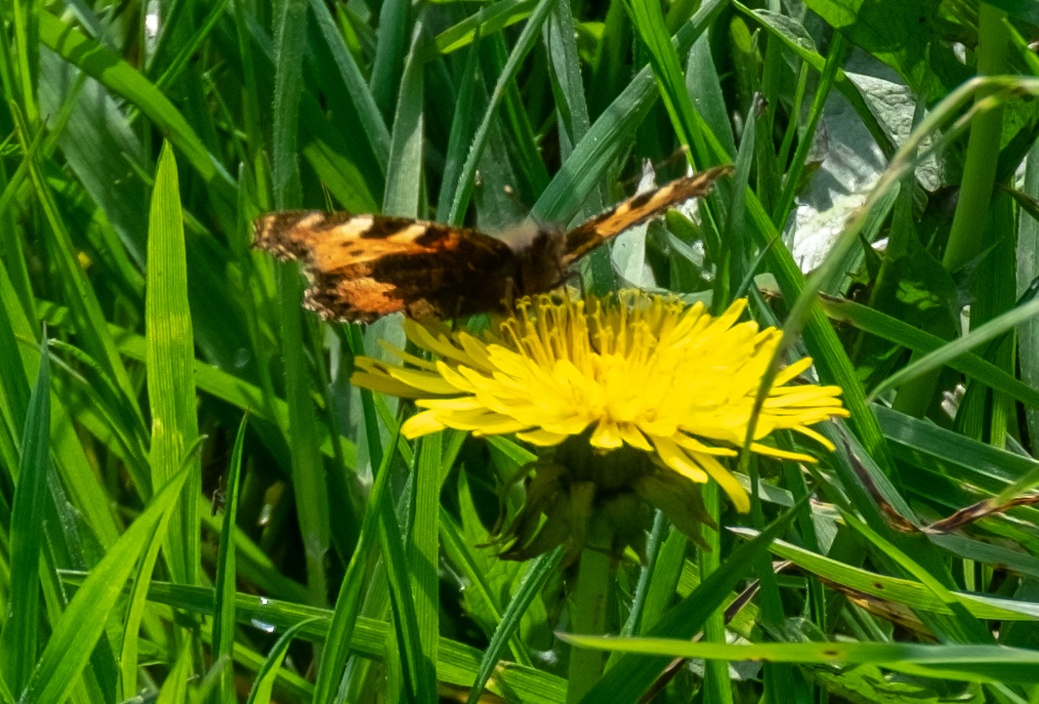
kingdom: Animalia
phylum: Arthropoda
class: Insecta
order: Lepidoptera
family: Nymphalidae
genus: Aglais
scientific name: Aglais urticae
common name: Small tortoiseshell
